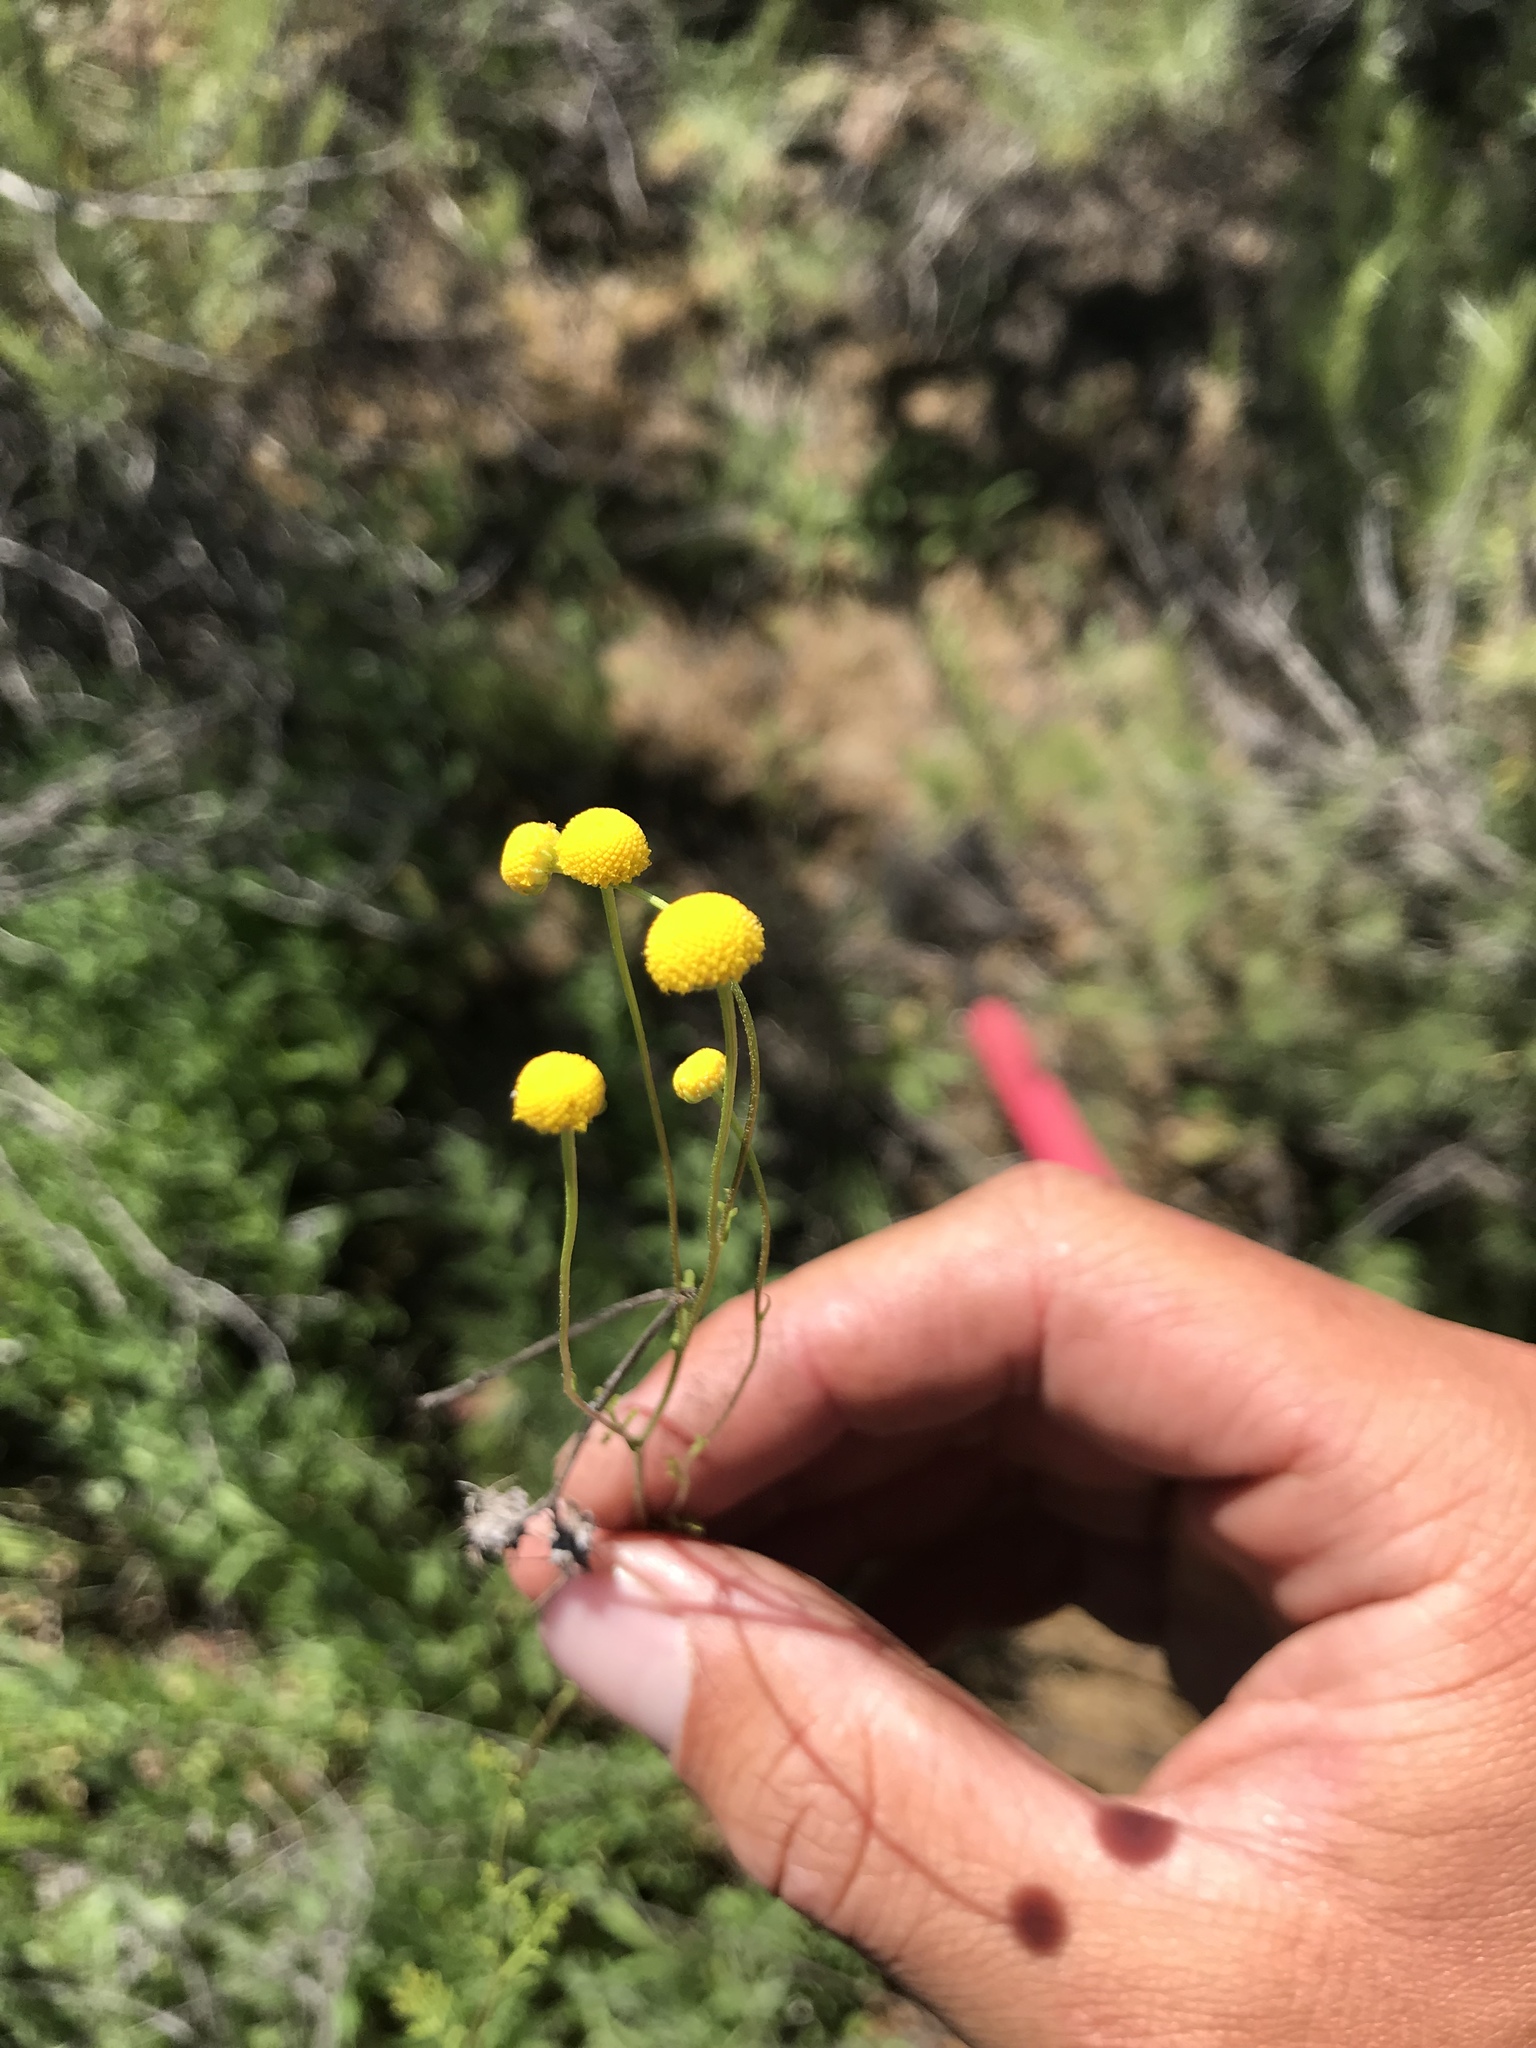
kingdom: Plantae
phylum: Tracheophyta
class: Magnoliopsida
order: Asterales
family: Asteraceae
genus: Oncosiphon
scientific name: Oncosiphon pilulifer
